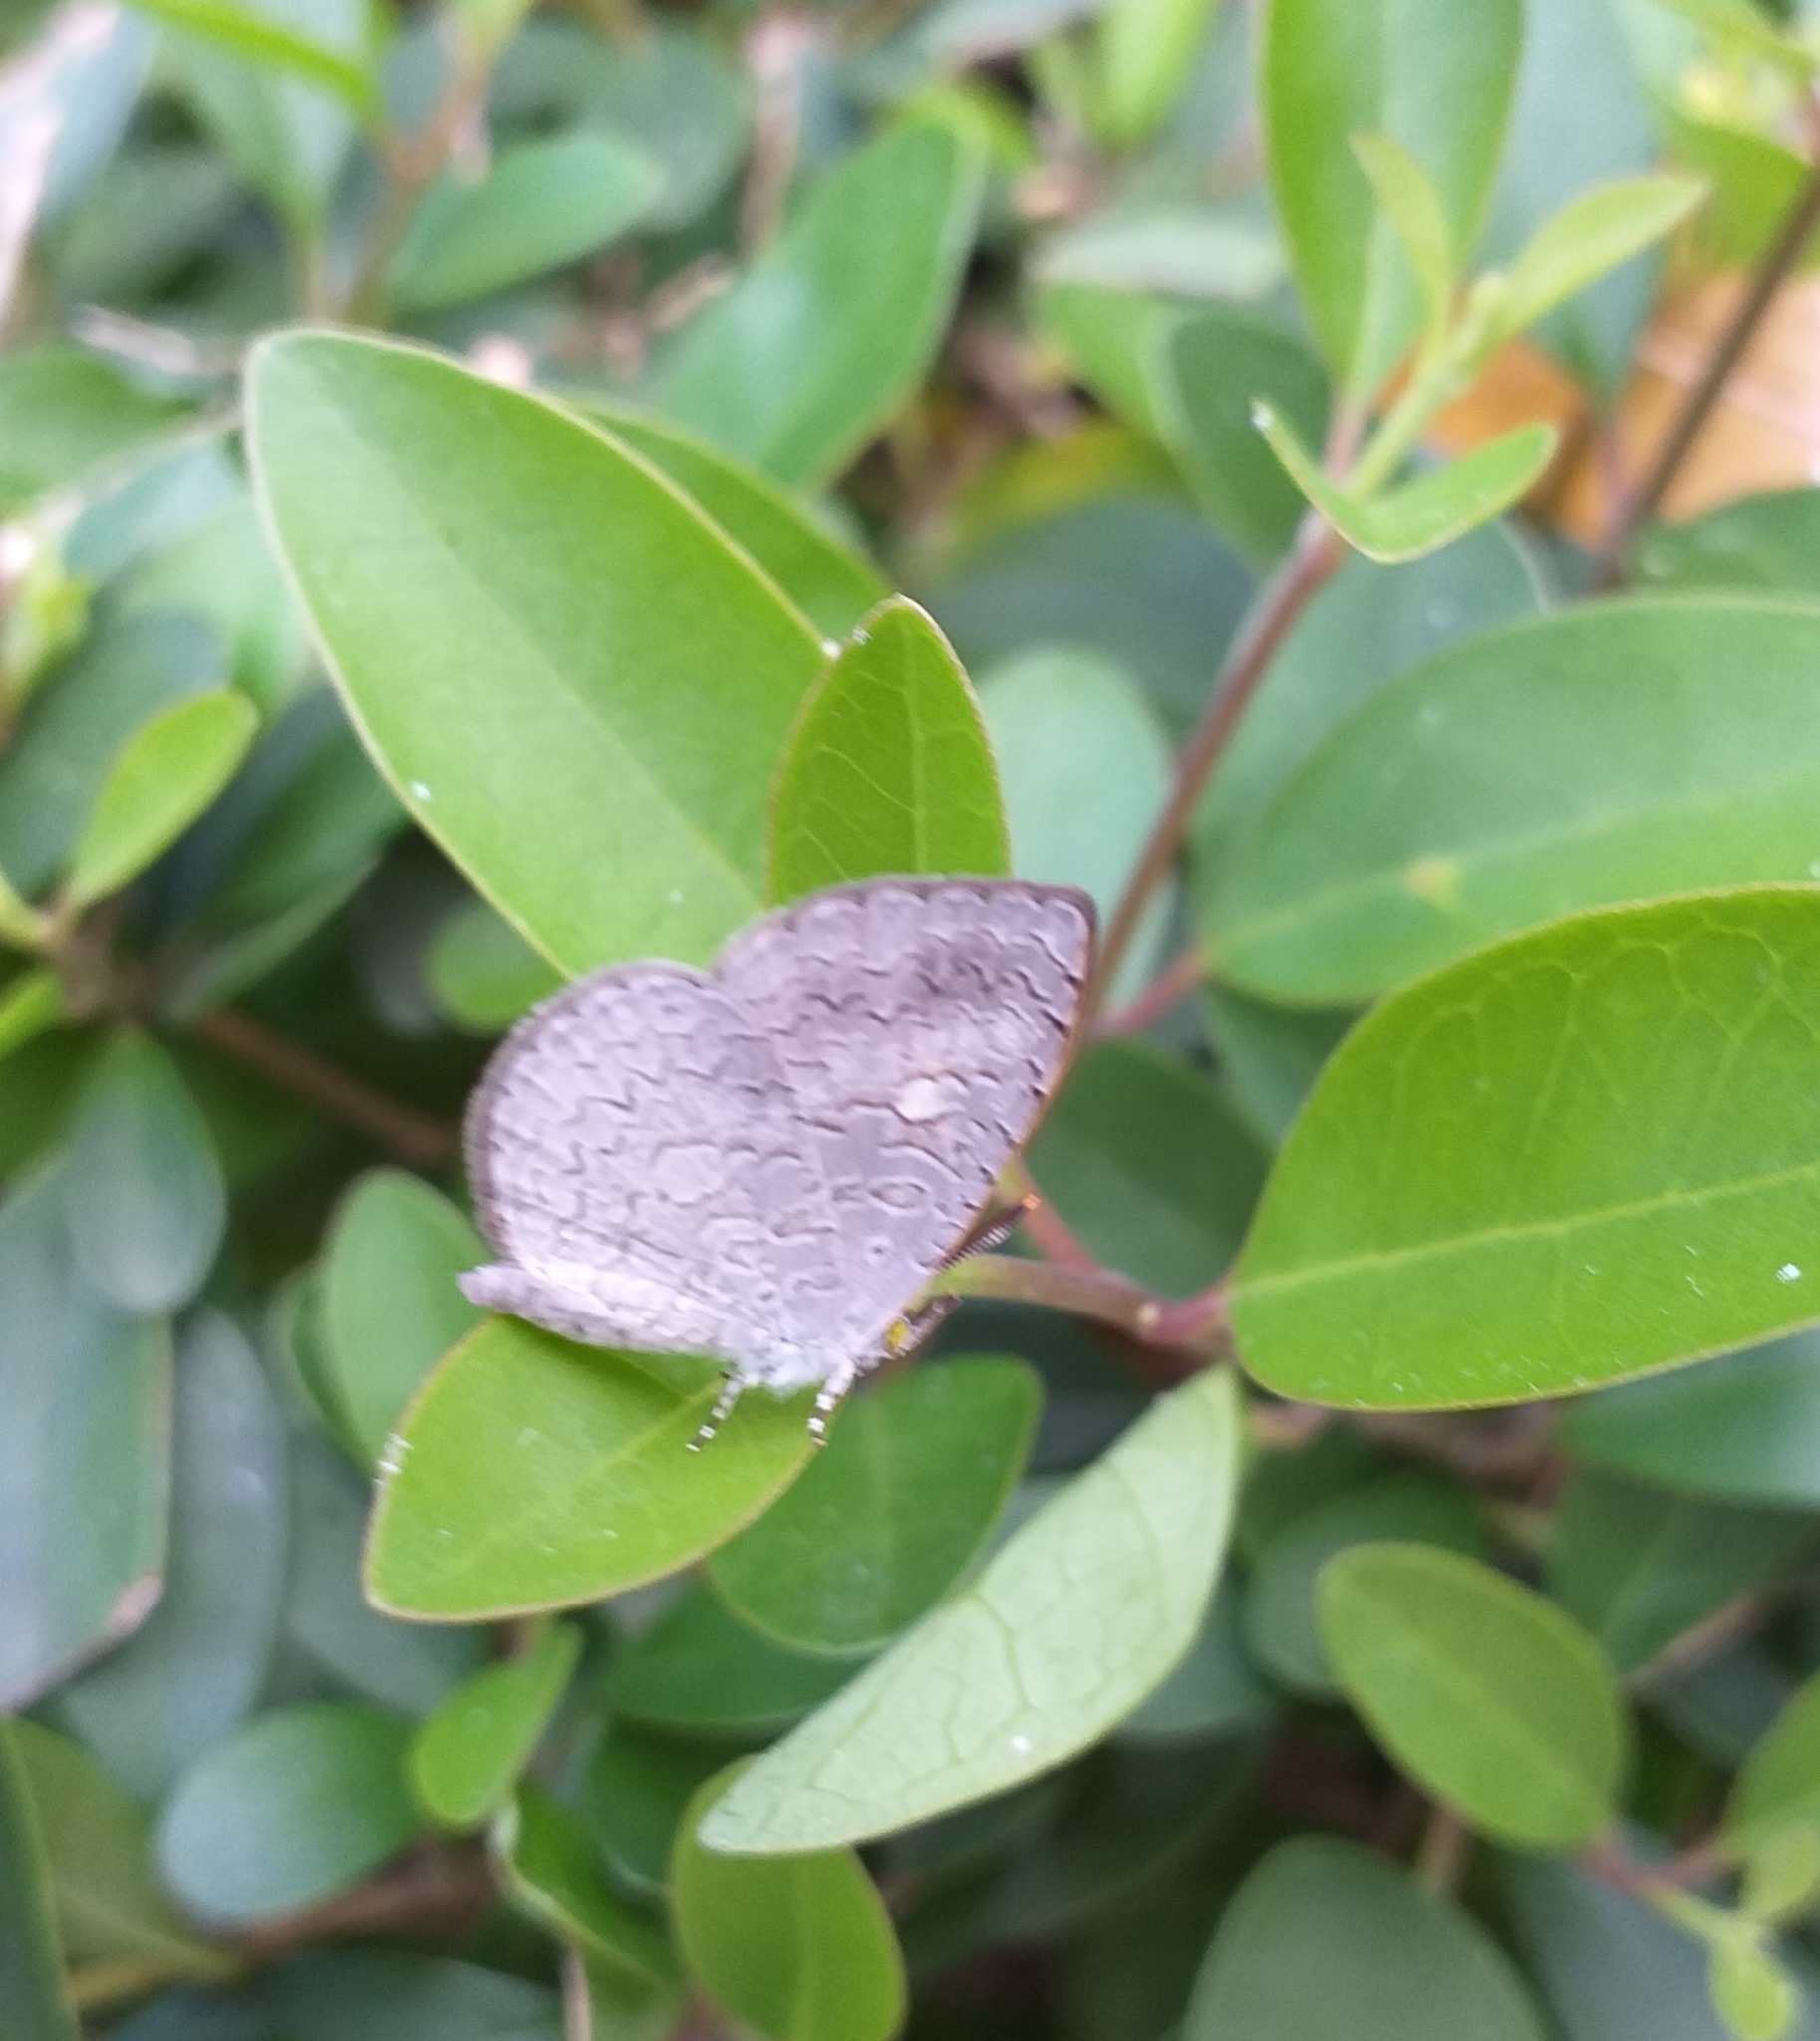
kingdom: Animalia
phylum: Arthropoda
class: Insecta
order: Lepidoptera
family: Lycaenidae
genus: Spalgis
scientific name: Spalgis epius
